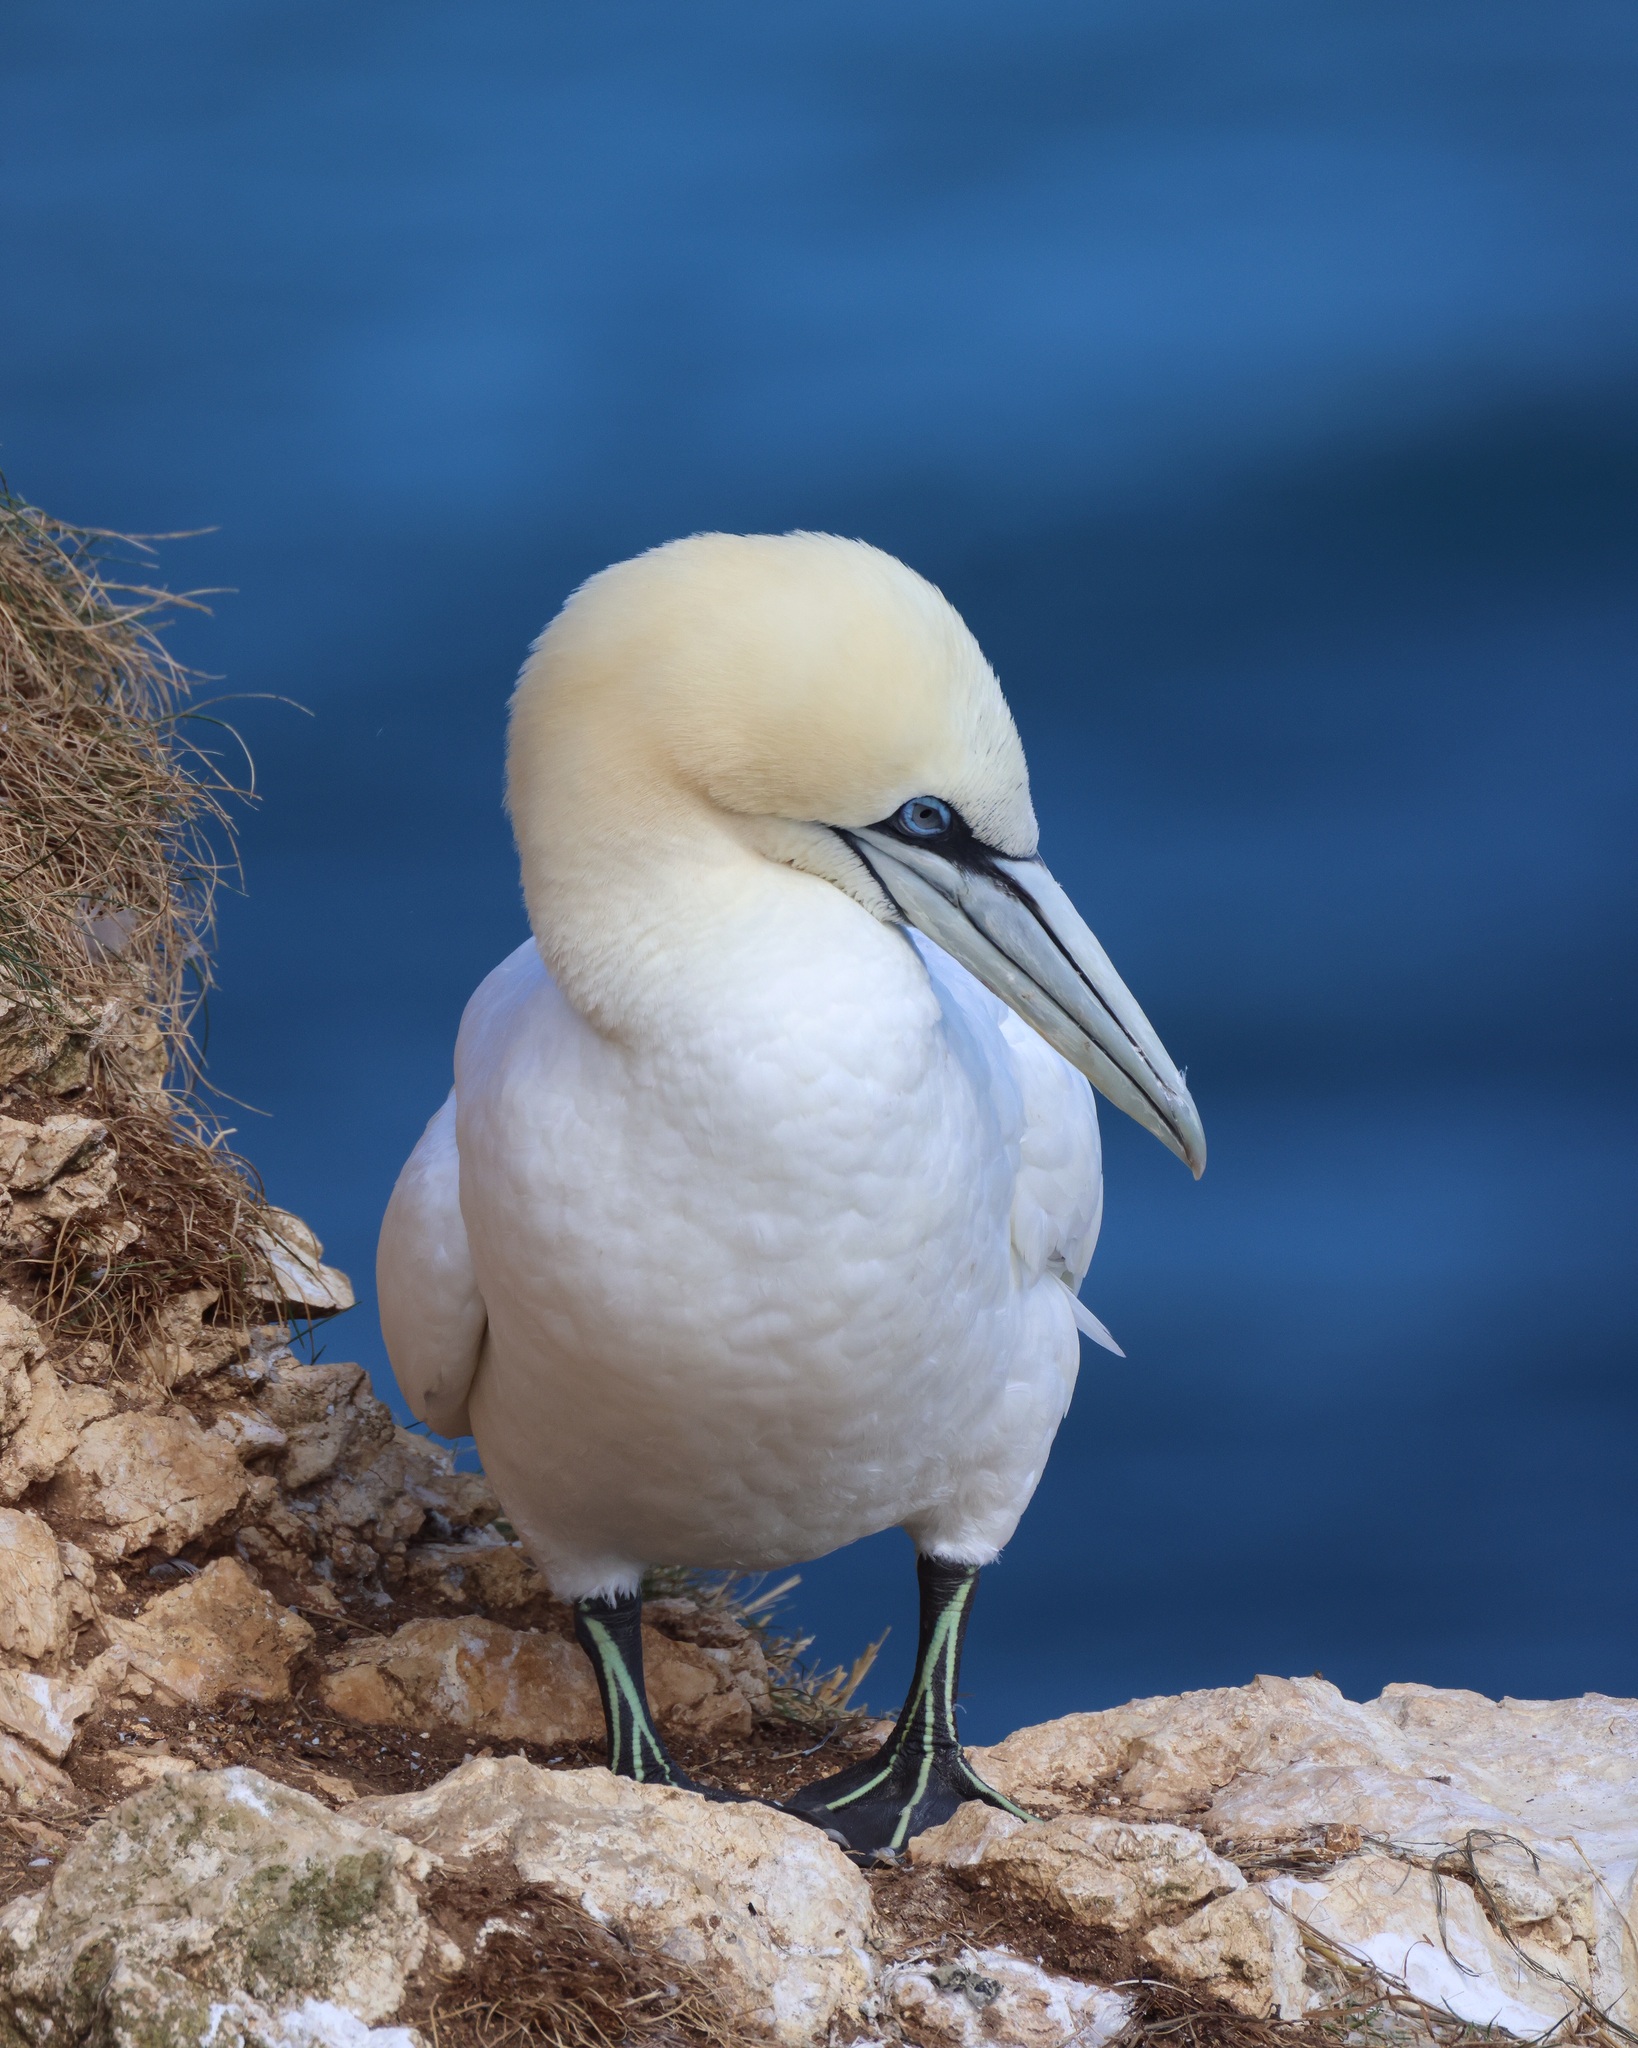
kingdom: Animalia
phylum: Chordata
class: Aves
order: Suliformes
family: Sulidae
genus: Morus
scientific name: Morus bassanus
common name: Northern gannet
